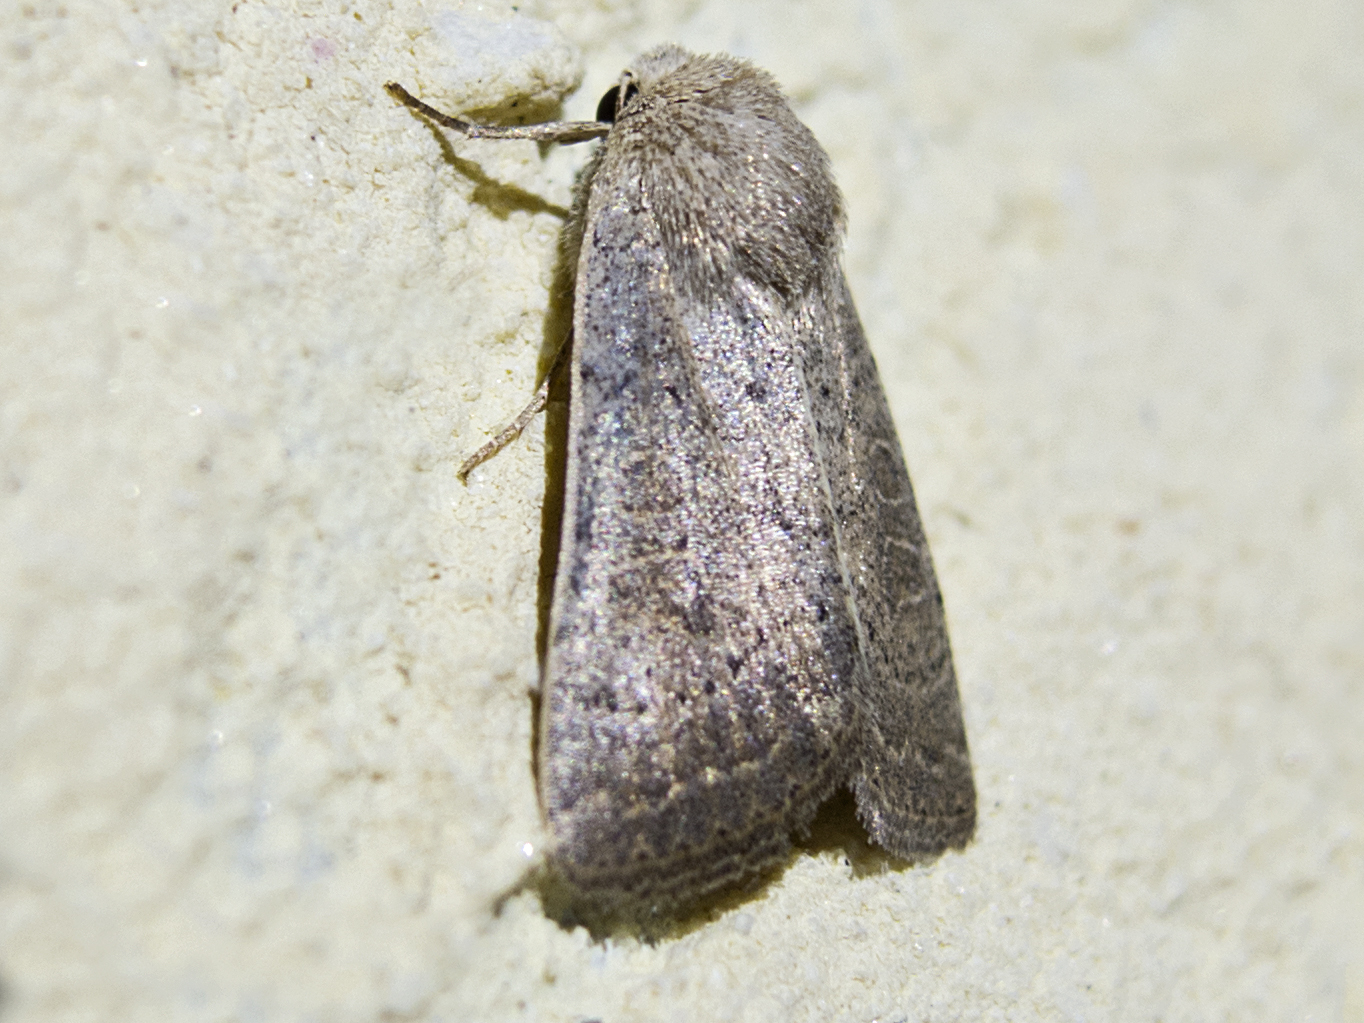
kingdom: Animalia
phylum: Arthropoda
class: Insecta
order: Lepidoptera
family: Noctuidae
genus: Hoplodrina
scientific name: Hoplodrina ambigua
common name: Vine's rustic
